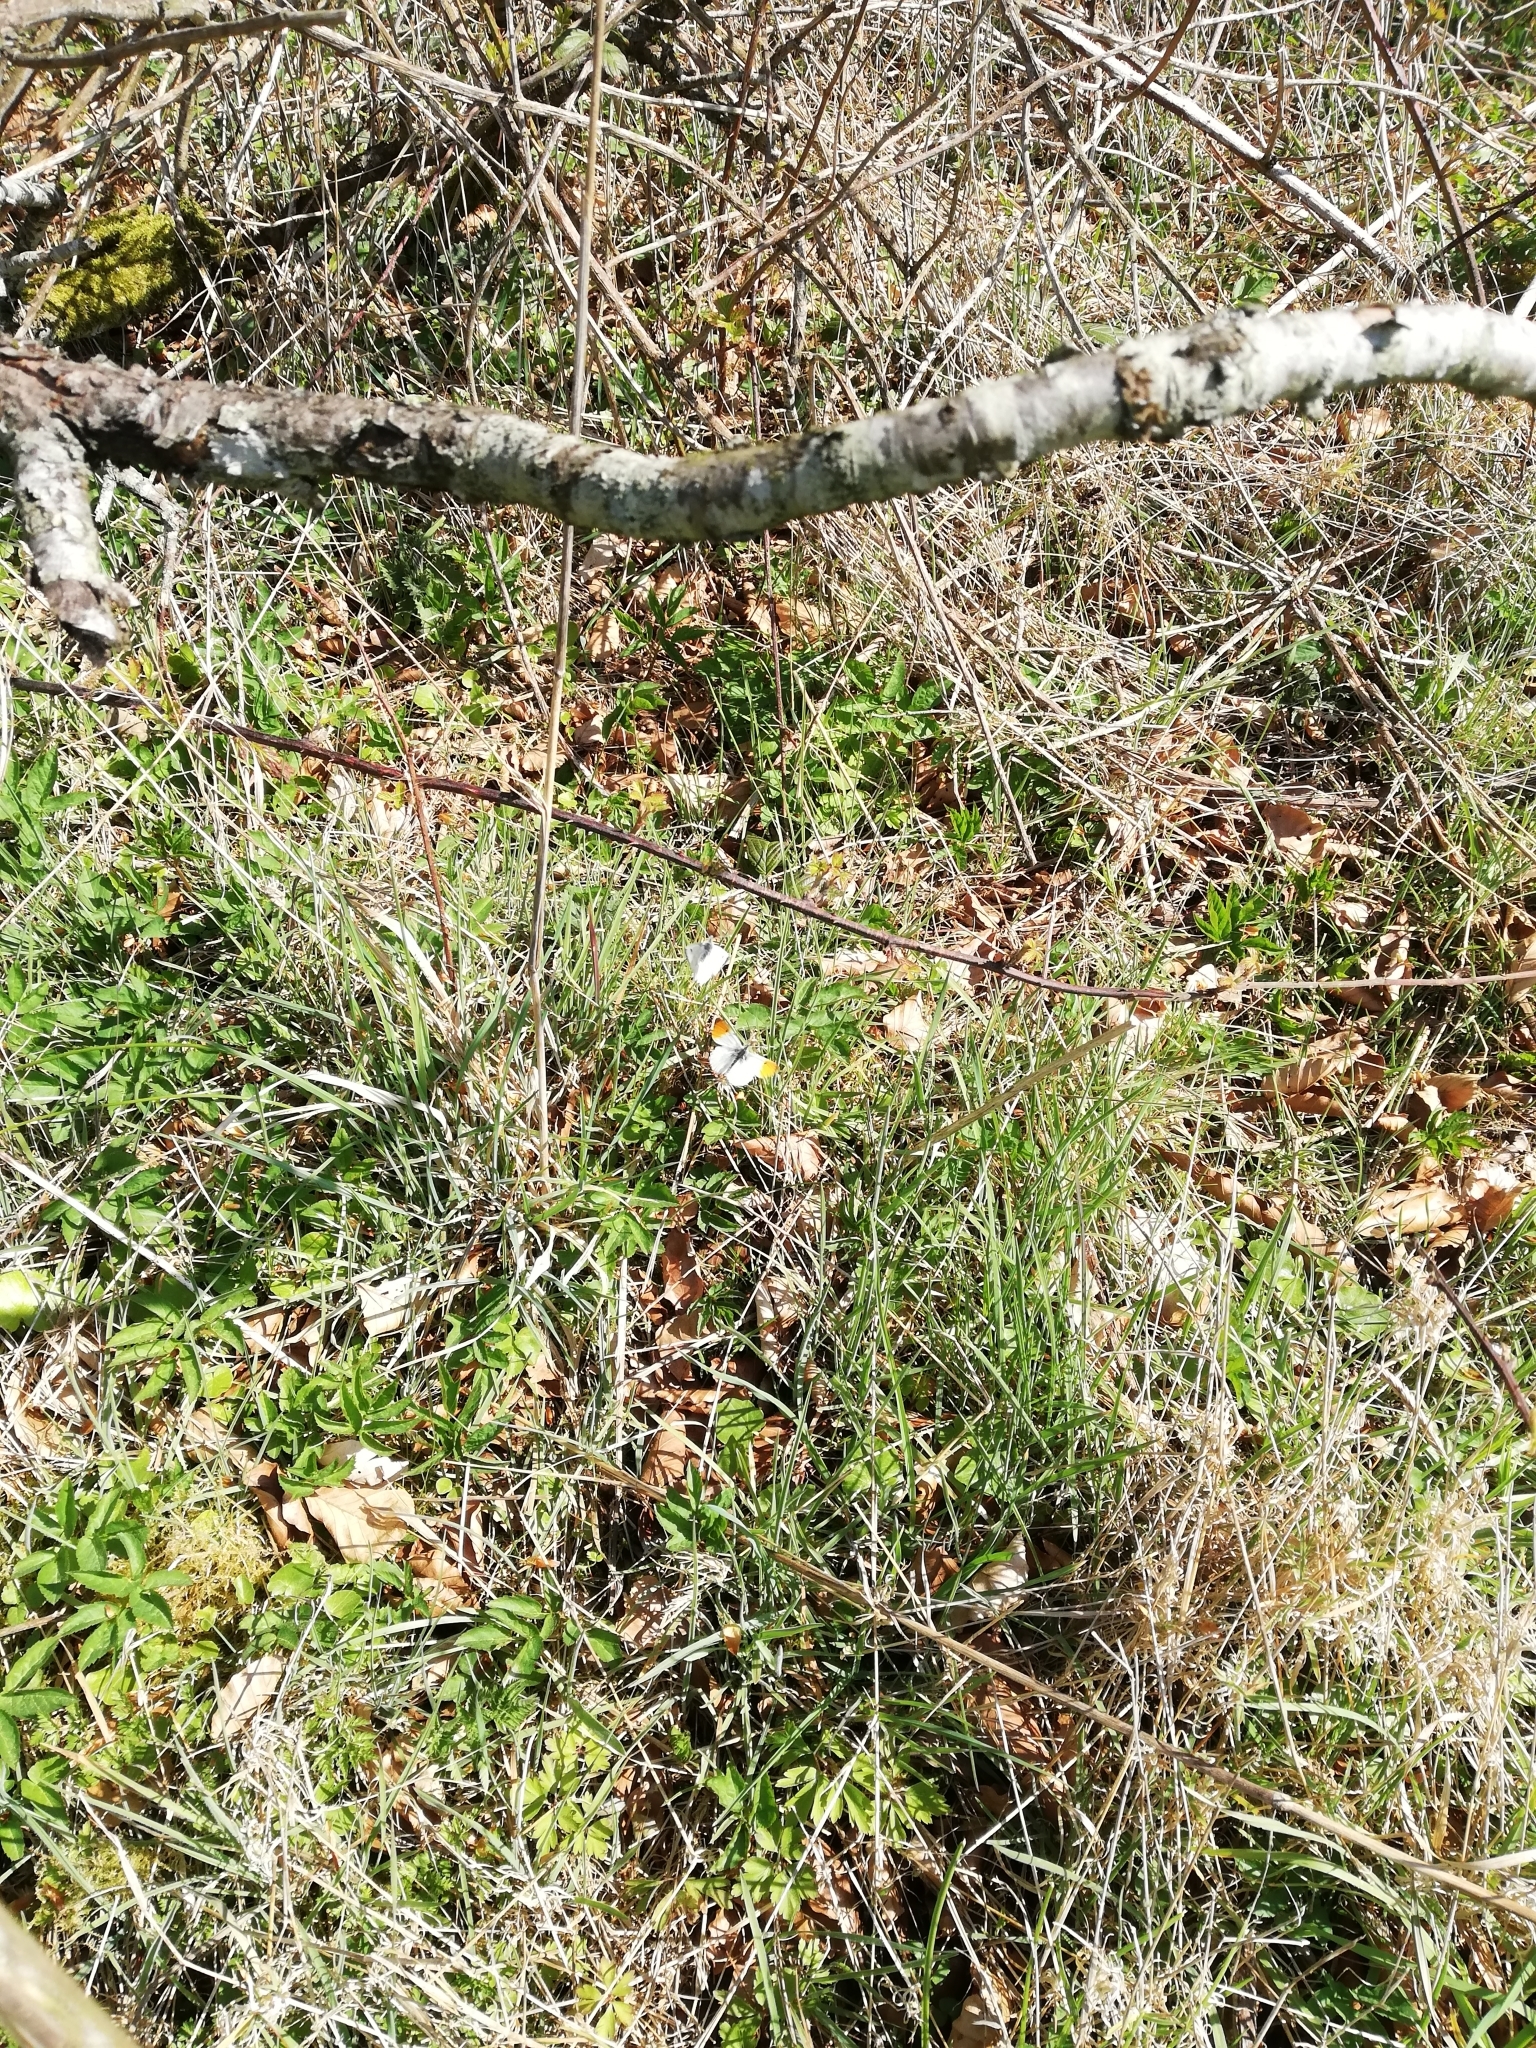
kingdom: Animalia
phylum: Arthropoda
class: Insecta
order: Lepidoptera
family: Pieridae
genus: Anthocharis
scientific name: Anthocharis cardamines
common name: Orange-tip
